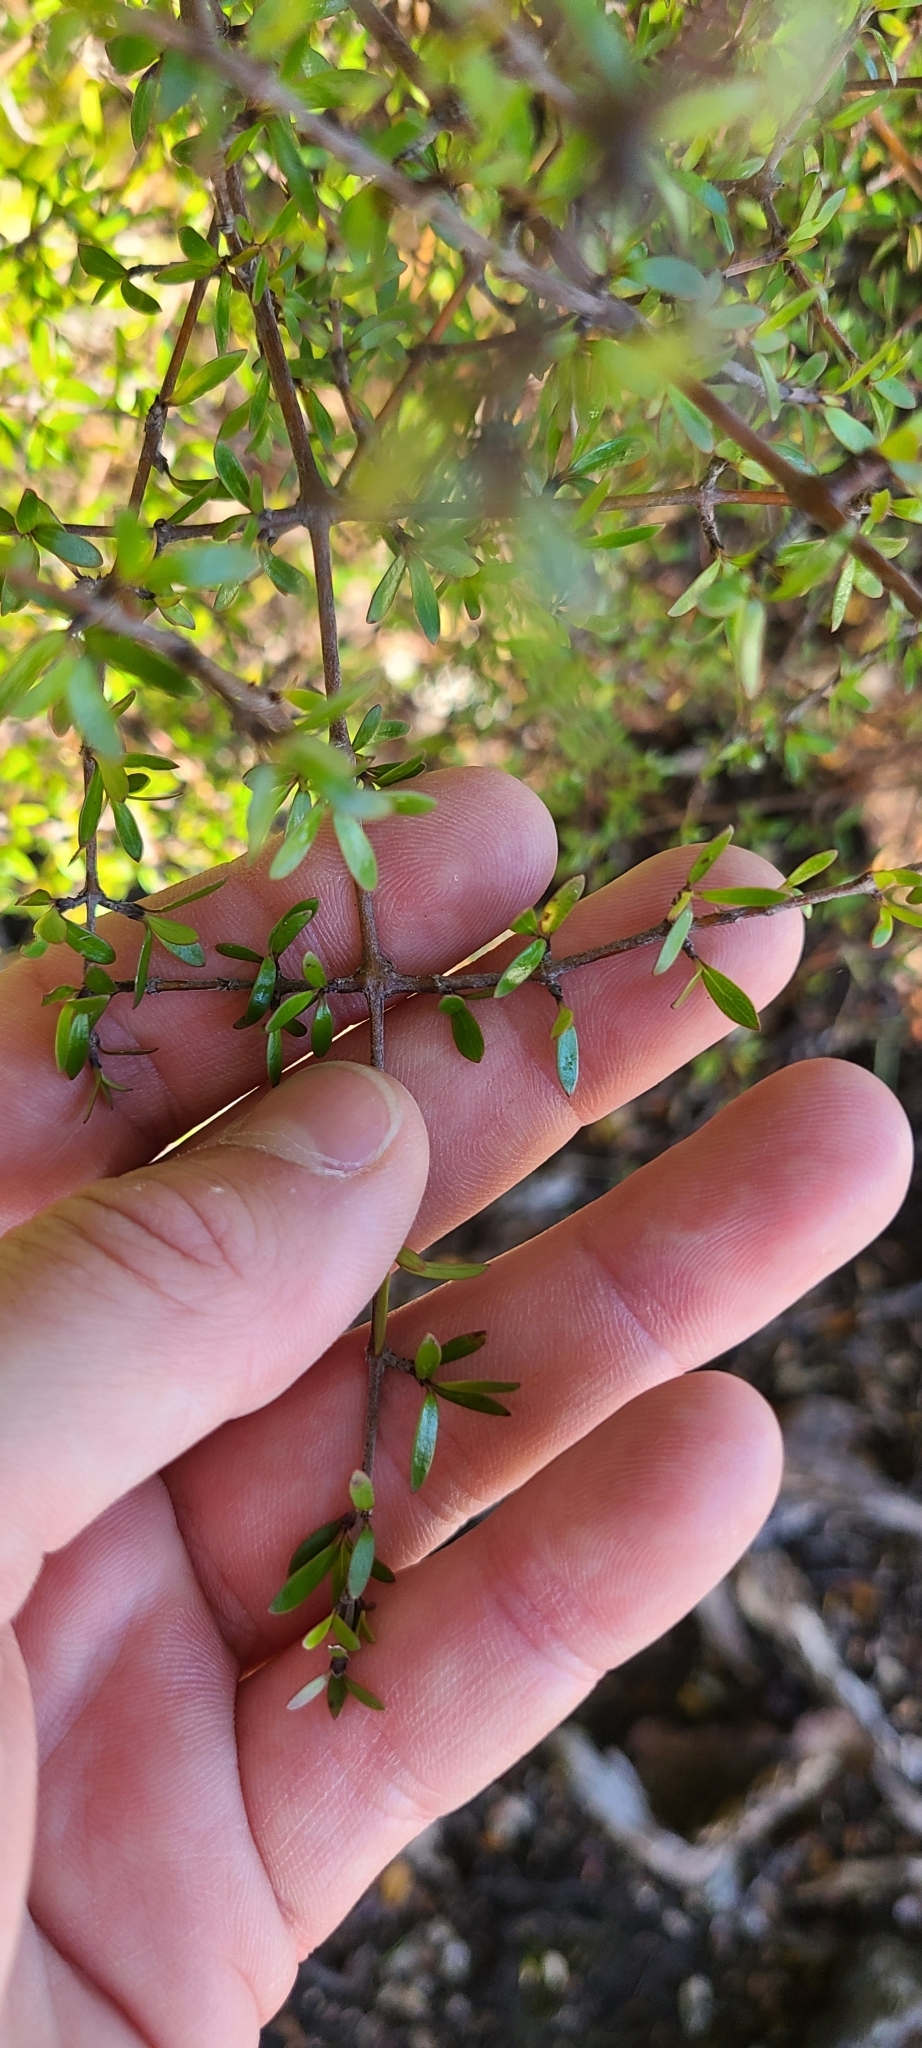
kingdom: Plantae
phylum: Tracheophyta
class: Magnoliopsida
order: Gentianales
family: Rubiaceae
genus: Coprosma
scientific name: Coprosma microcarpa
